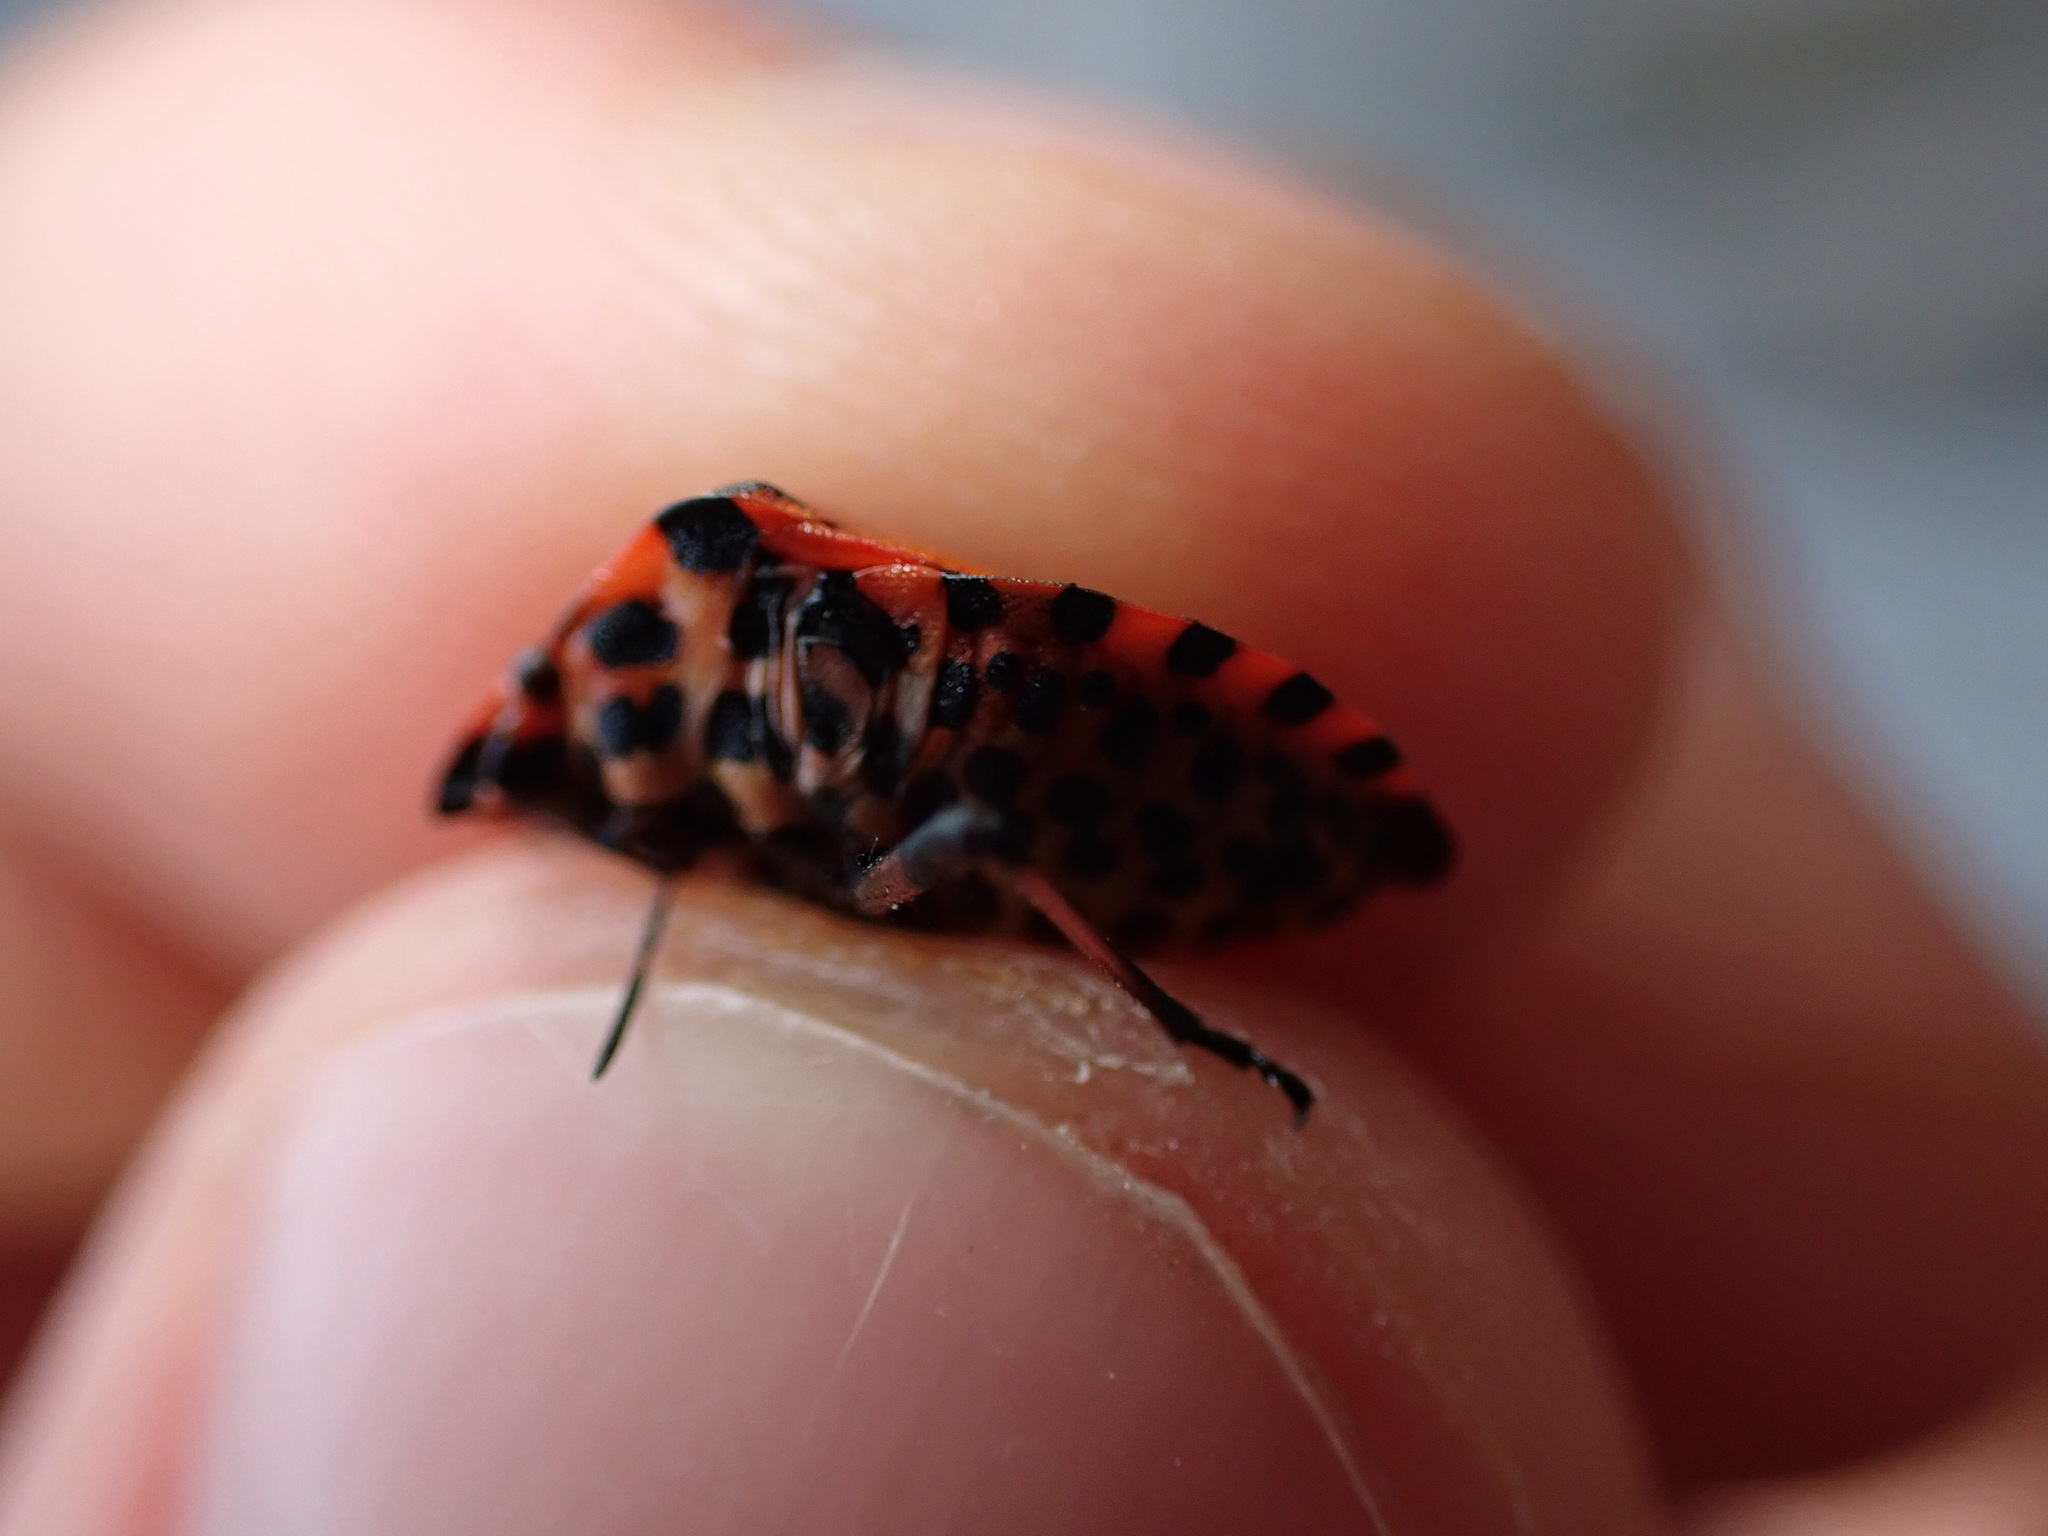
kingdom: Animalia
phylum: Arthropoda
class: Insecta
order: Hemiptera
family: Pentatomidae
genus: Graphosoma
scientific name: Graphosoma italicum
